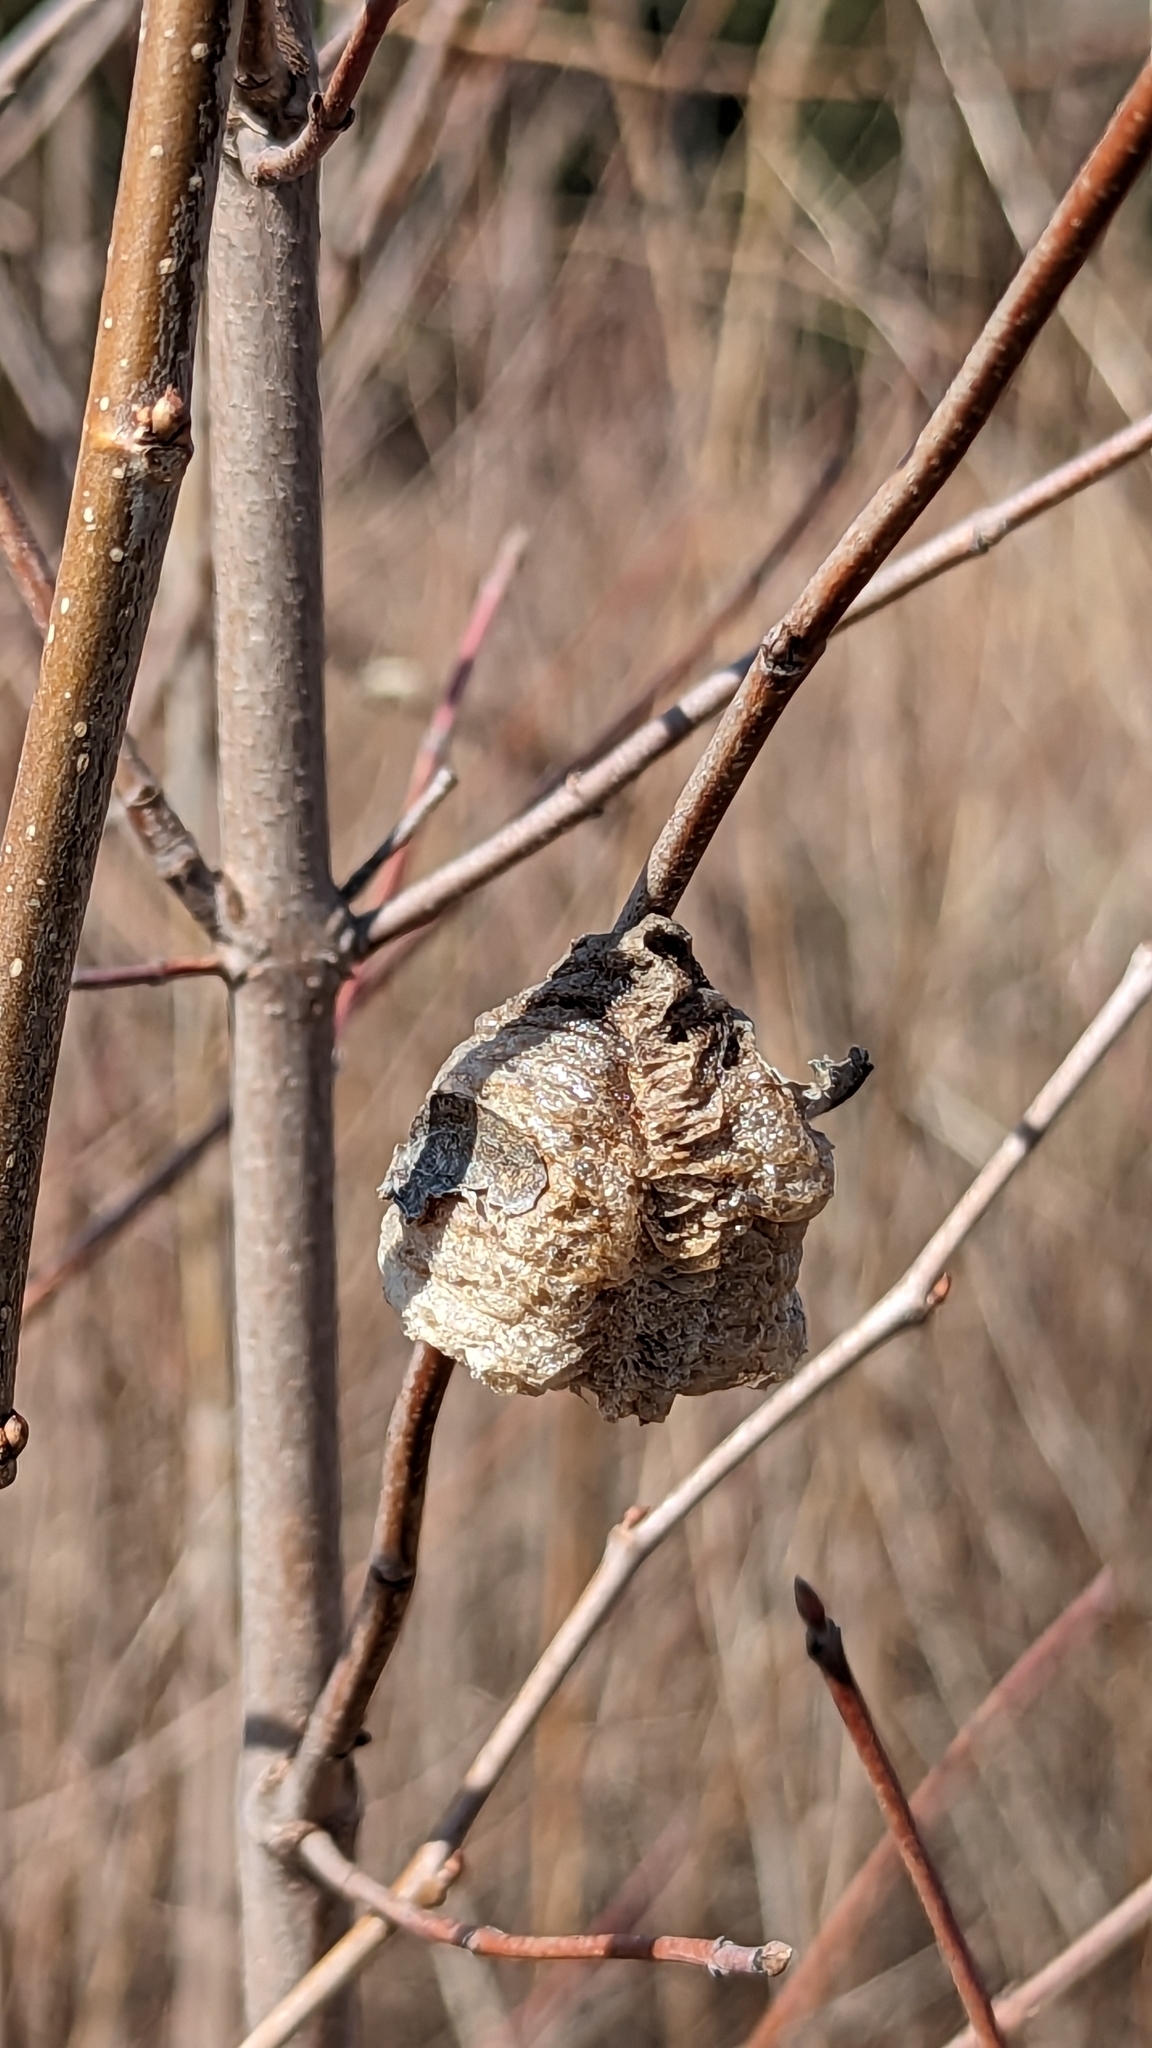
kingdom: Animalia
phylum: Arthropoda
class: Insecta
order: Mantodea
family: Mantidae
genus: Tenodera
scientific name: Tenodera sinensis
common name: Chinese mantis
